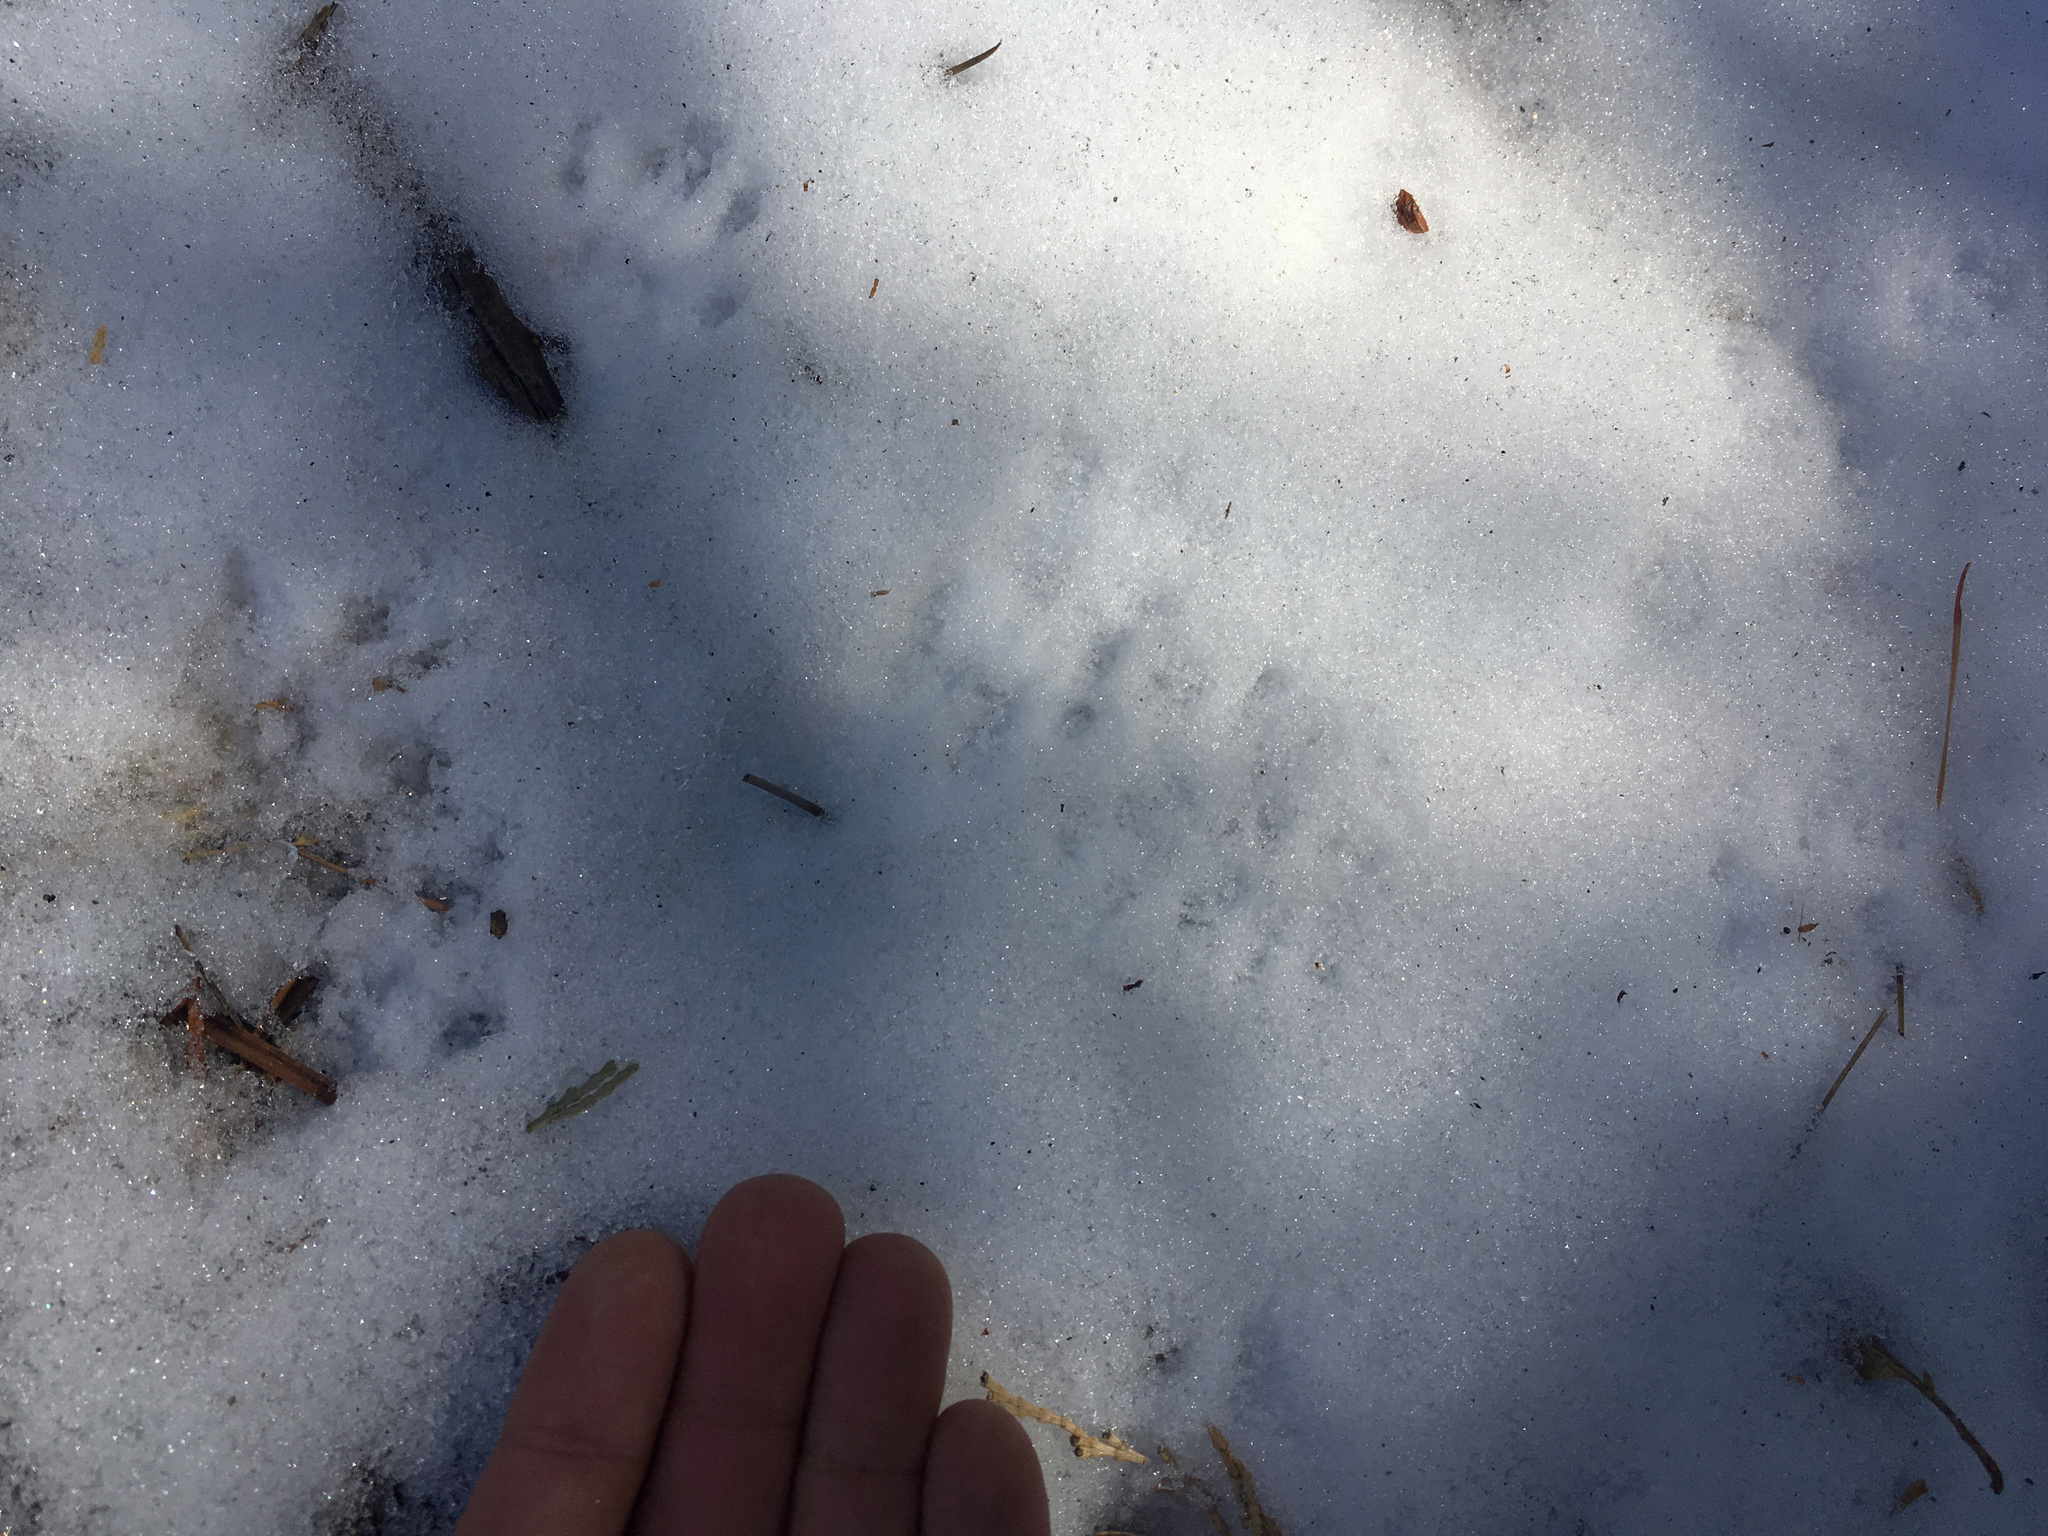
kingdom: Animalia
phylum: Chordata
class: Mammalia
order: Rodentia
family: Sciuridae
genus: Sciurus
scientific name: Sciurus griseus
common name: Western gray squirrel
